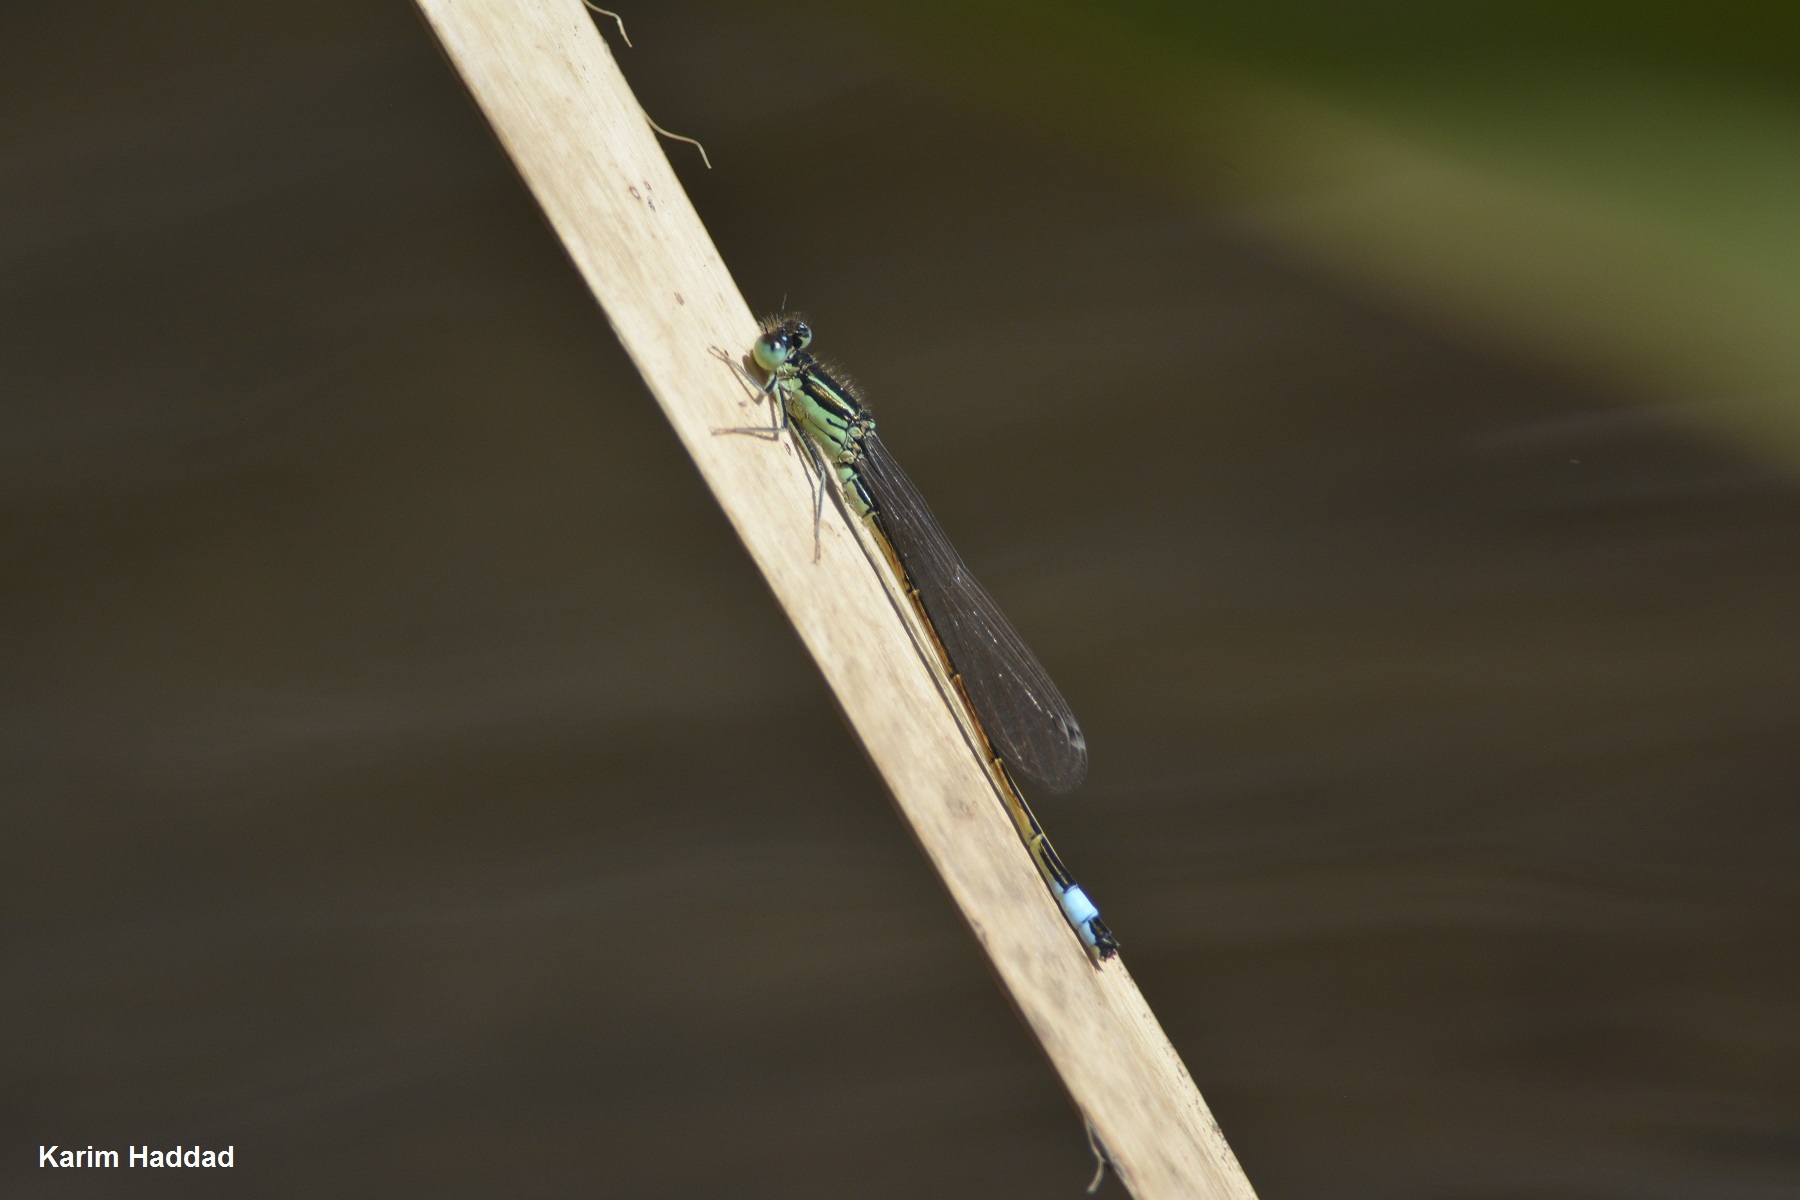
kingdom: Animalia
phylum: Arthropoda
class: Insecta
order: Odonata
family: Coenagrionidae
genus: Ischnura
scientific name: Ischnura saharensis
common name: Sahara bluetail
